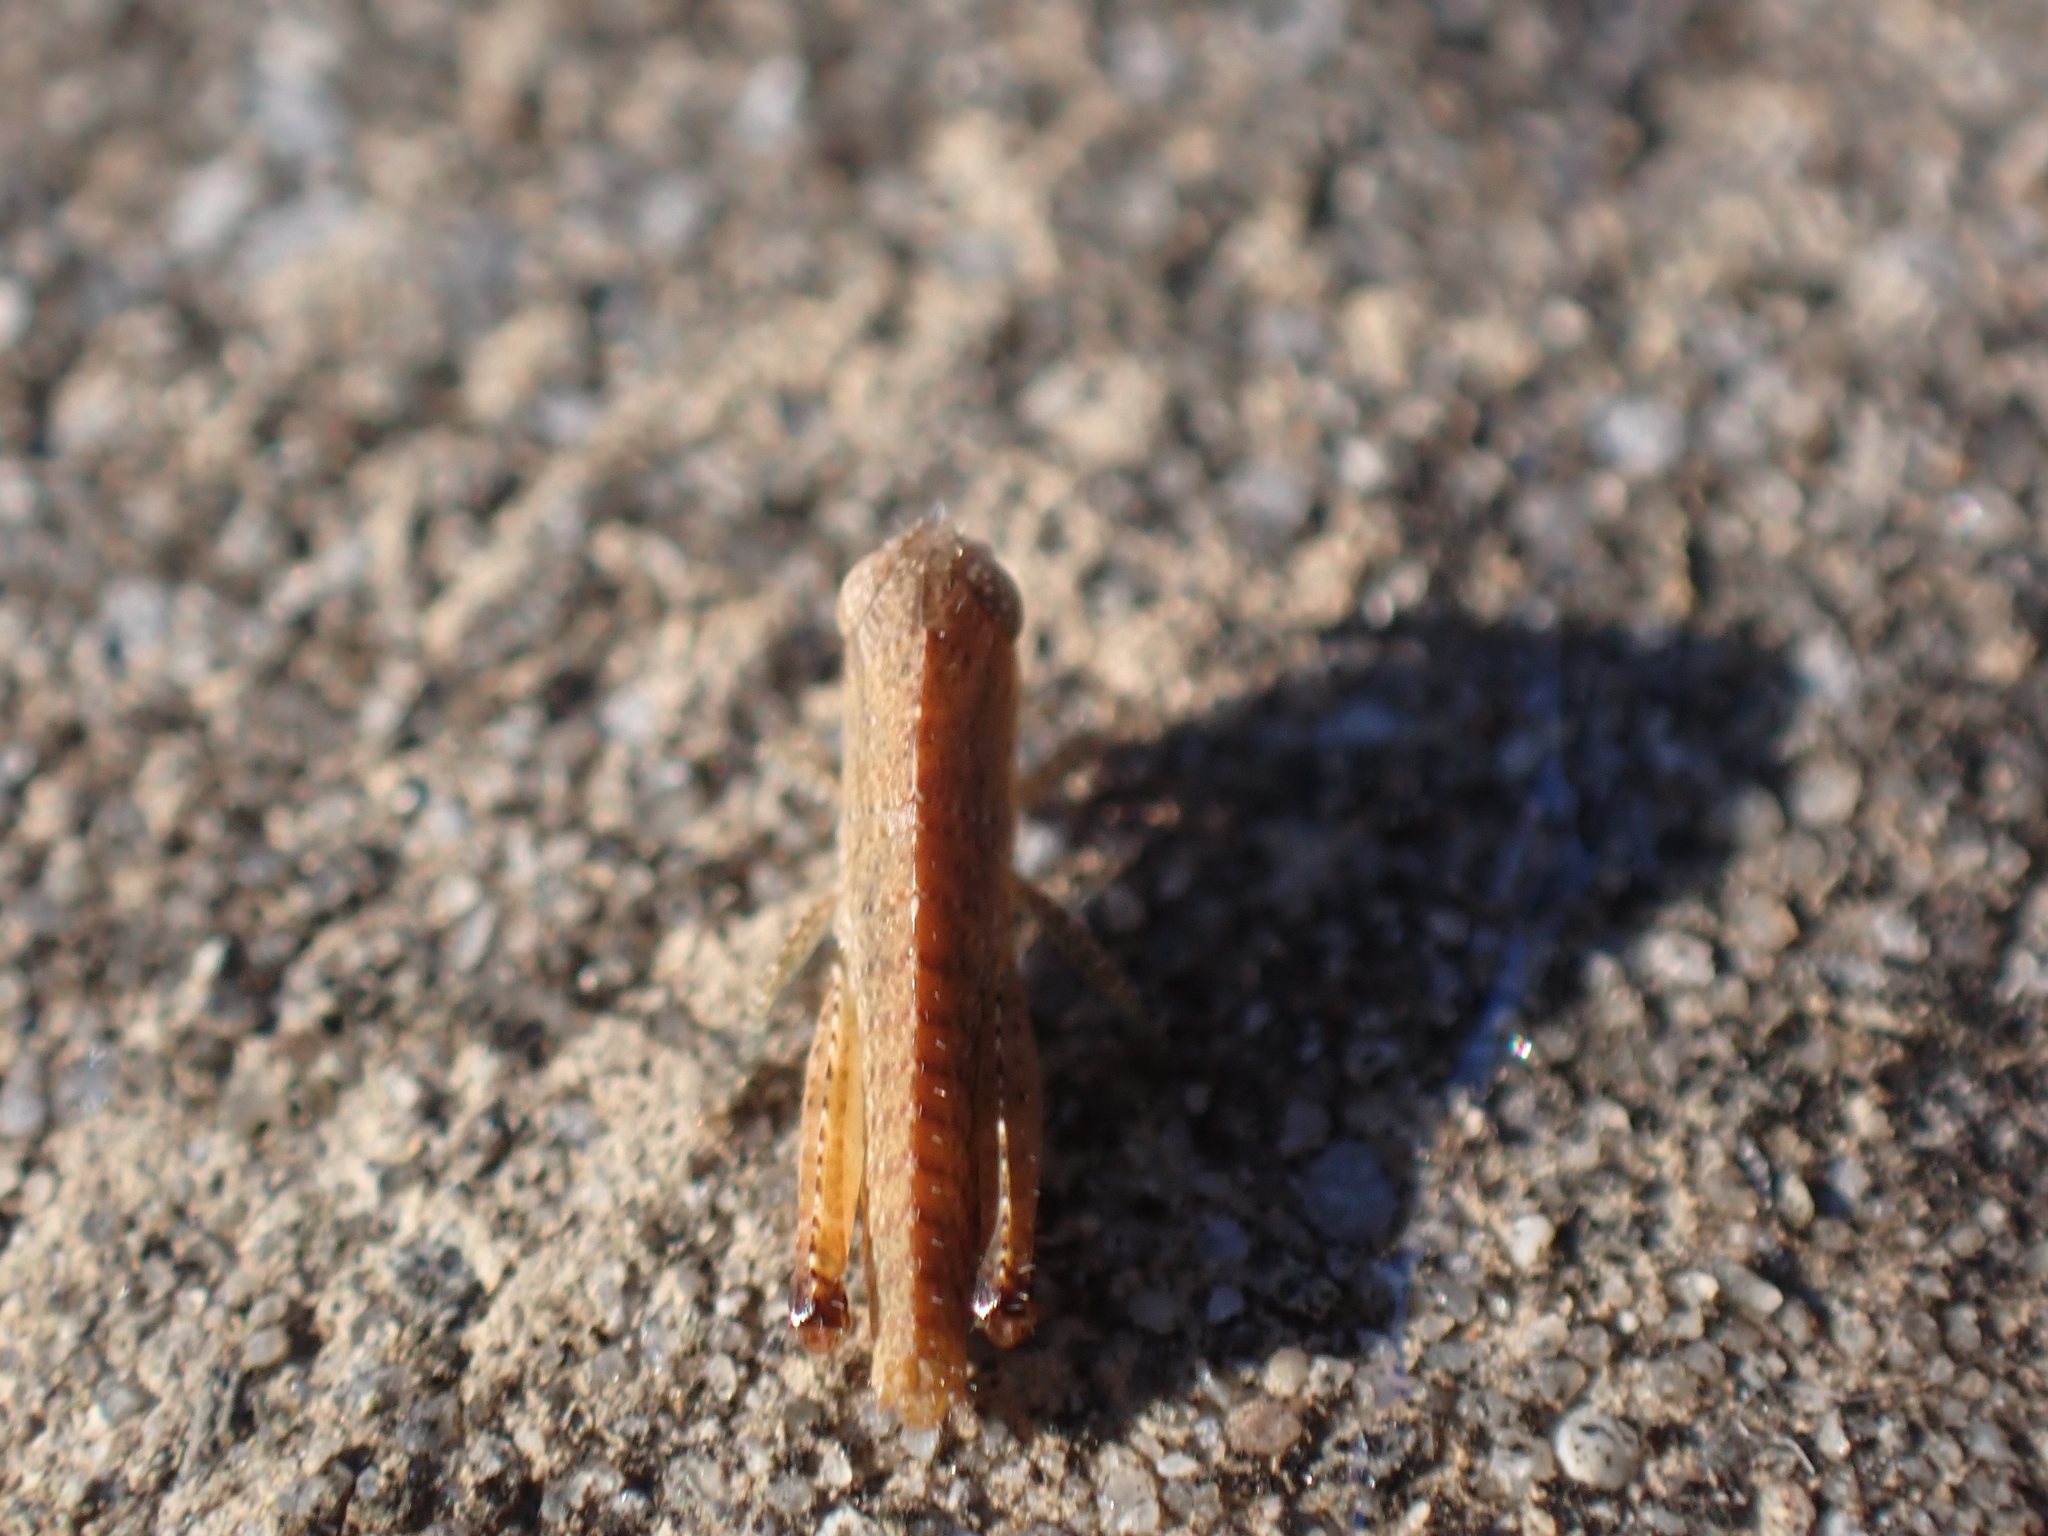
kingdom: Animalia
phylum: Arthropoda
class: Insecta
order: Orthoptera
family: Acrididae
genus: Chortophaga
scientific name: Chortophaga viridifasciata
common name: Green-striped grasshopper
